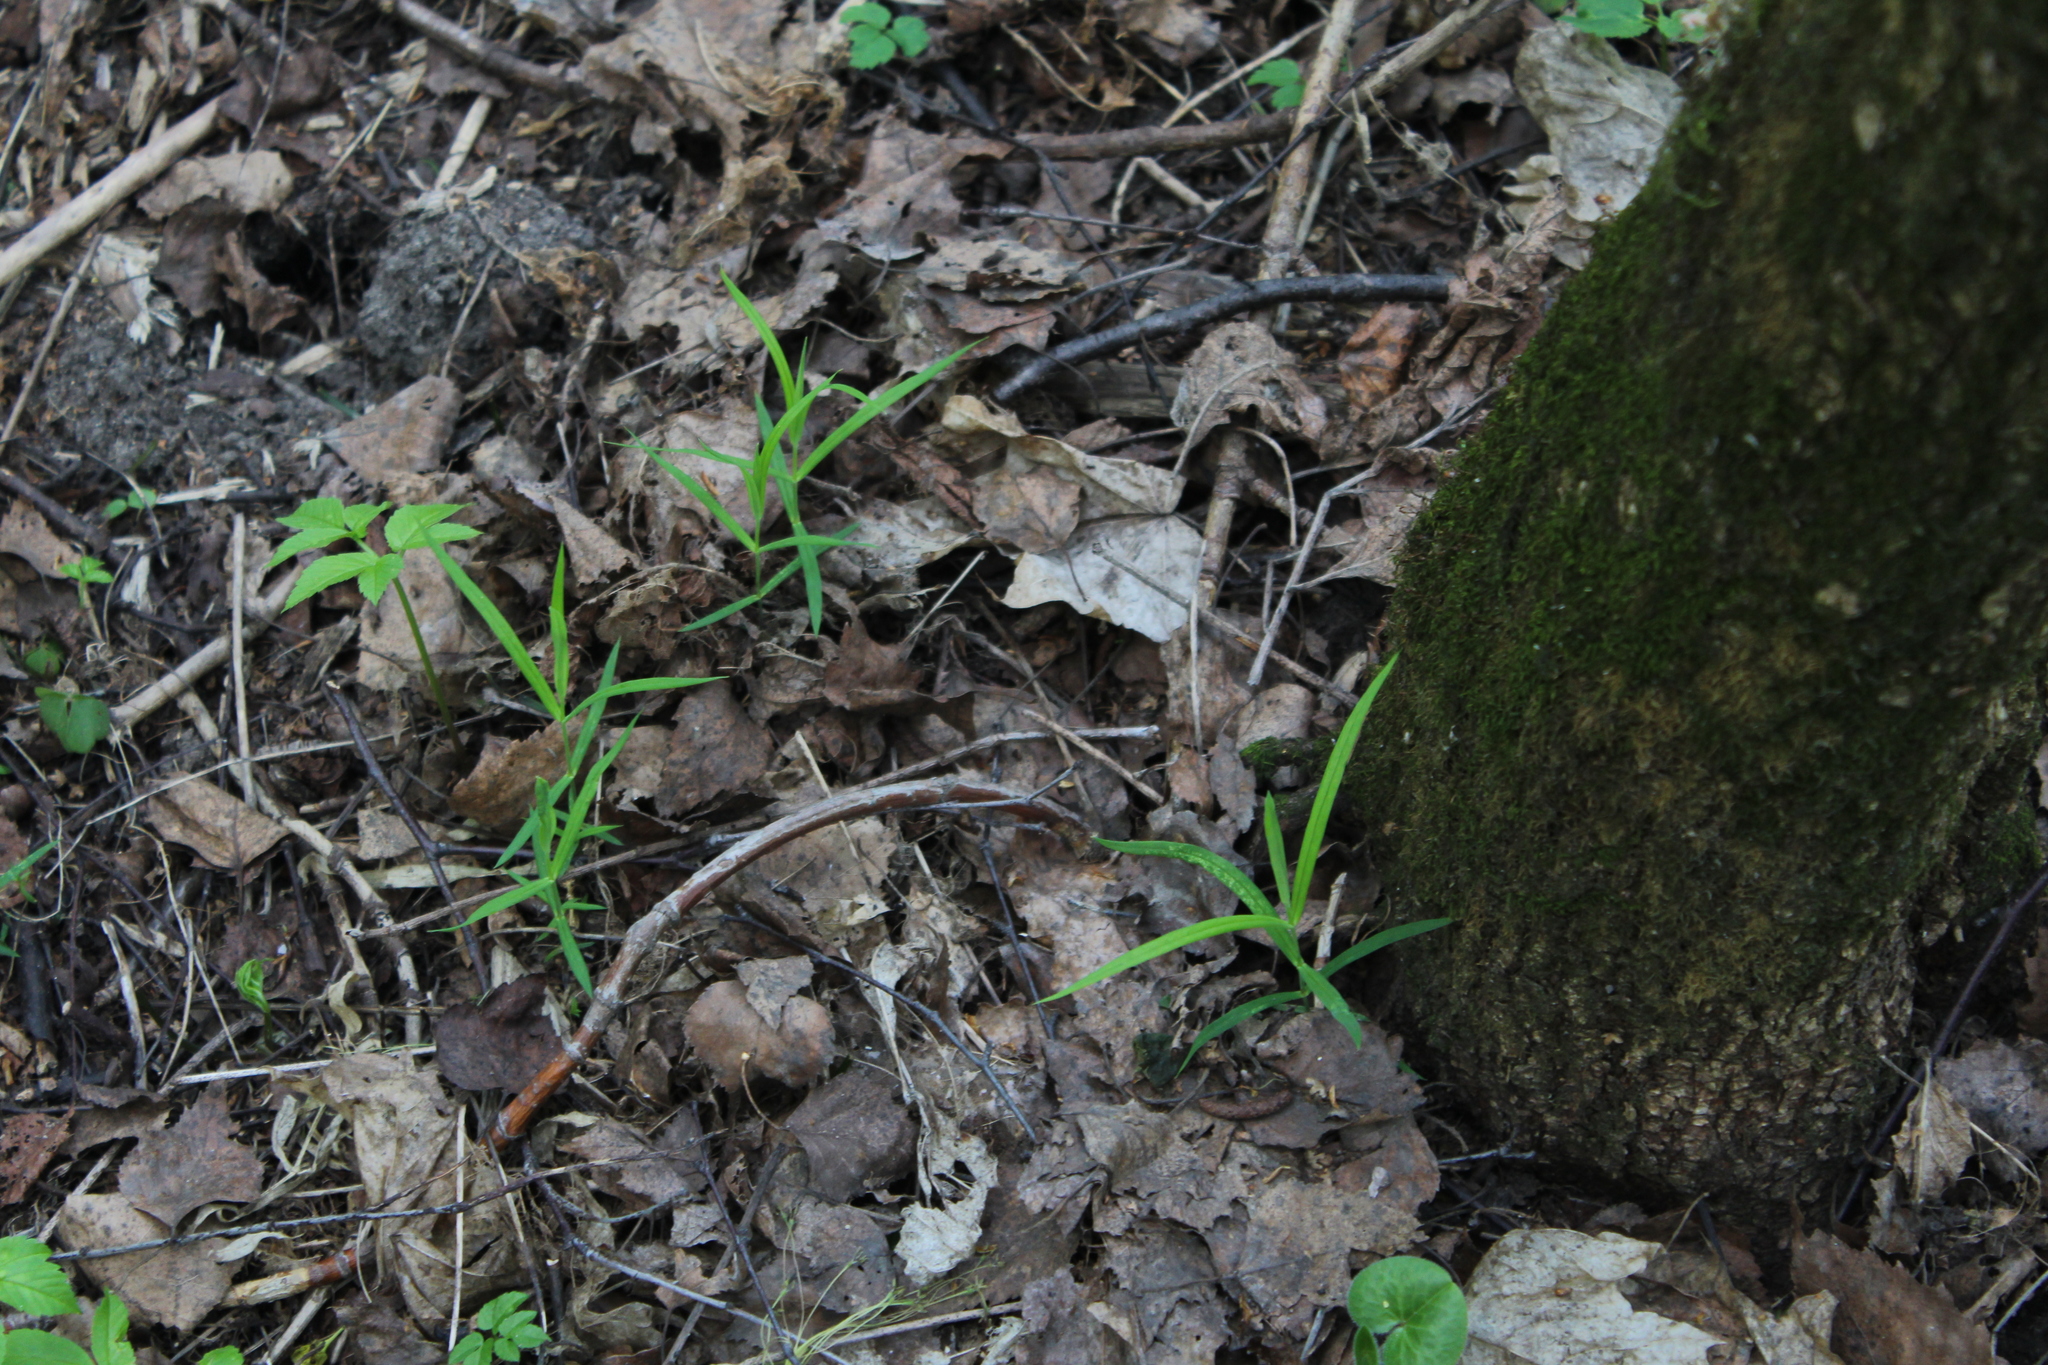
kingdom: Plantae
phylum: Tracheophyta
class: Magnoliopsida
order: Caryophyllales
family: Caryophyllaceae
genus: Rabelera
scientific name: Rabelera holostea
